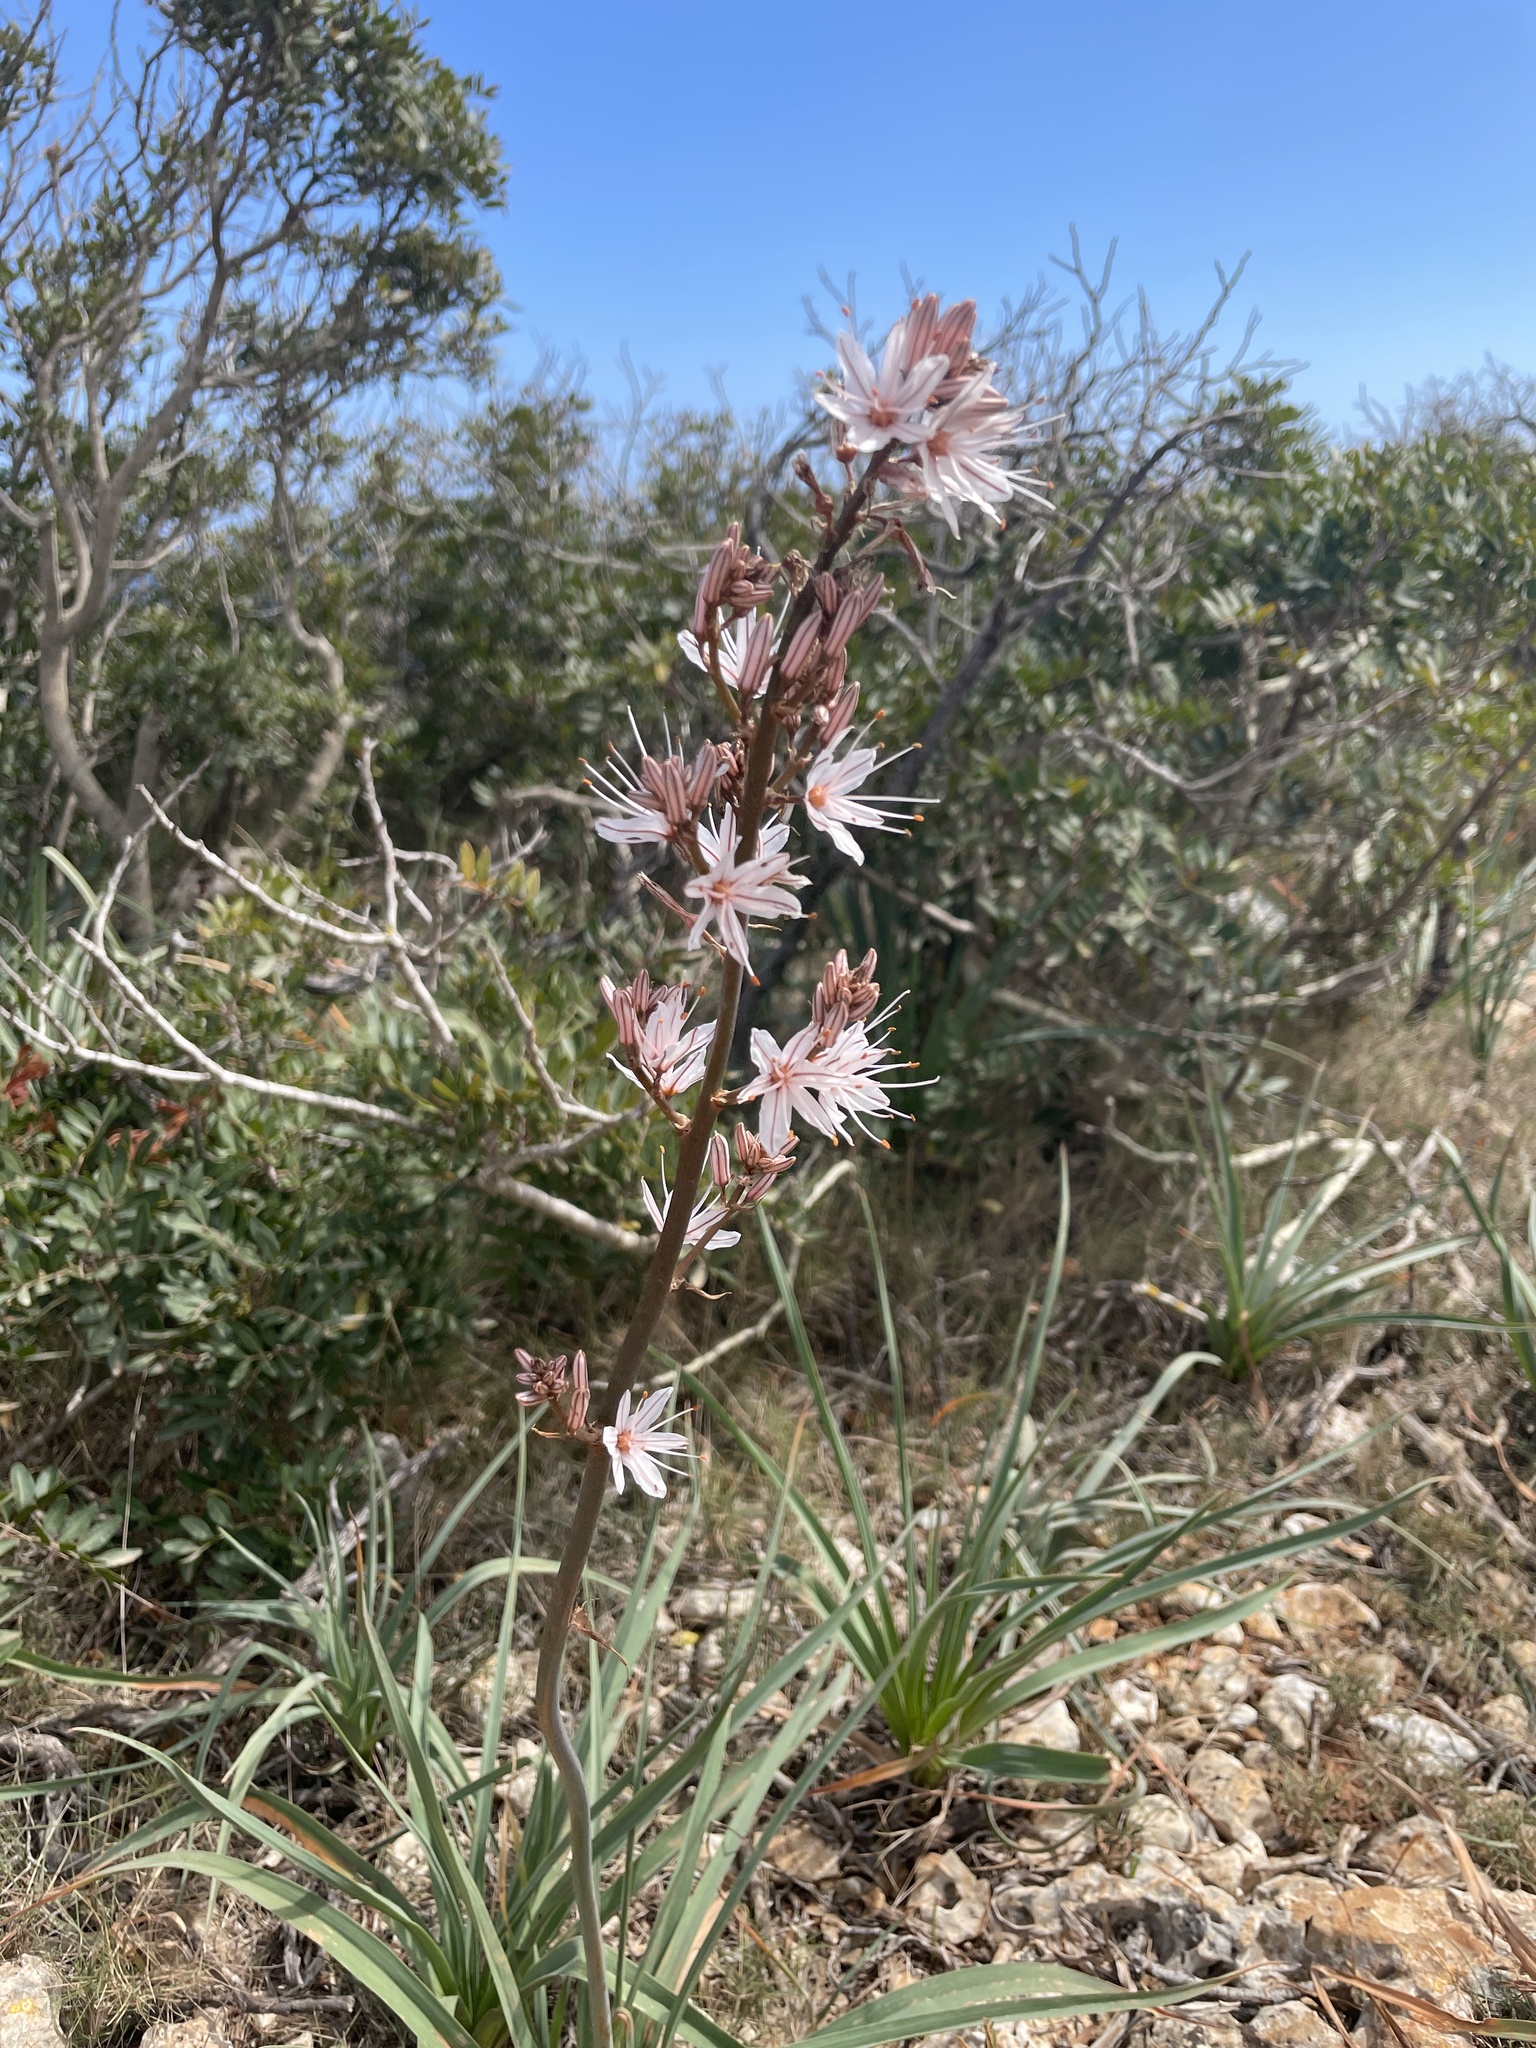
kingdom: Plantae
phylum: Tracheophyta
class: Liliopsida
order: Asparagales
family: Asphodelaceae
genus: Asphodelus
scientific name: Asphodelus ramosus
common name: Silverrod
